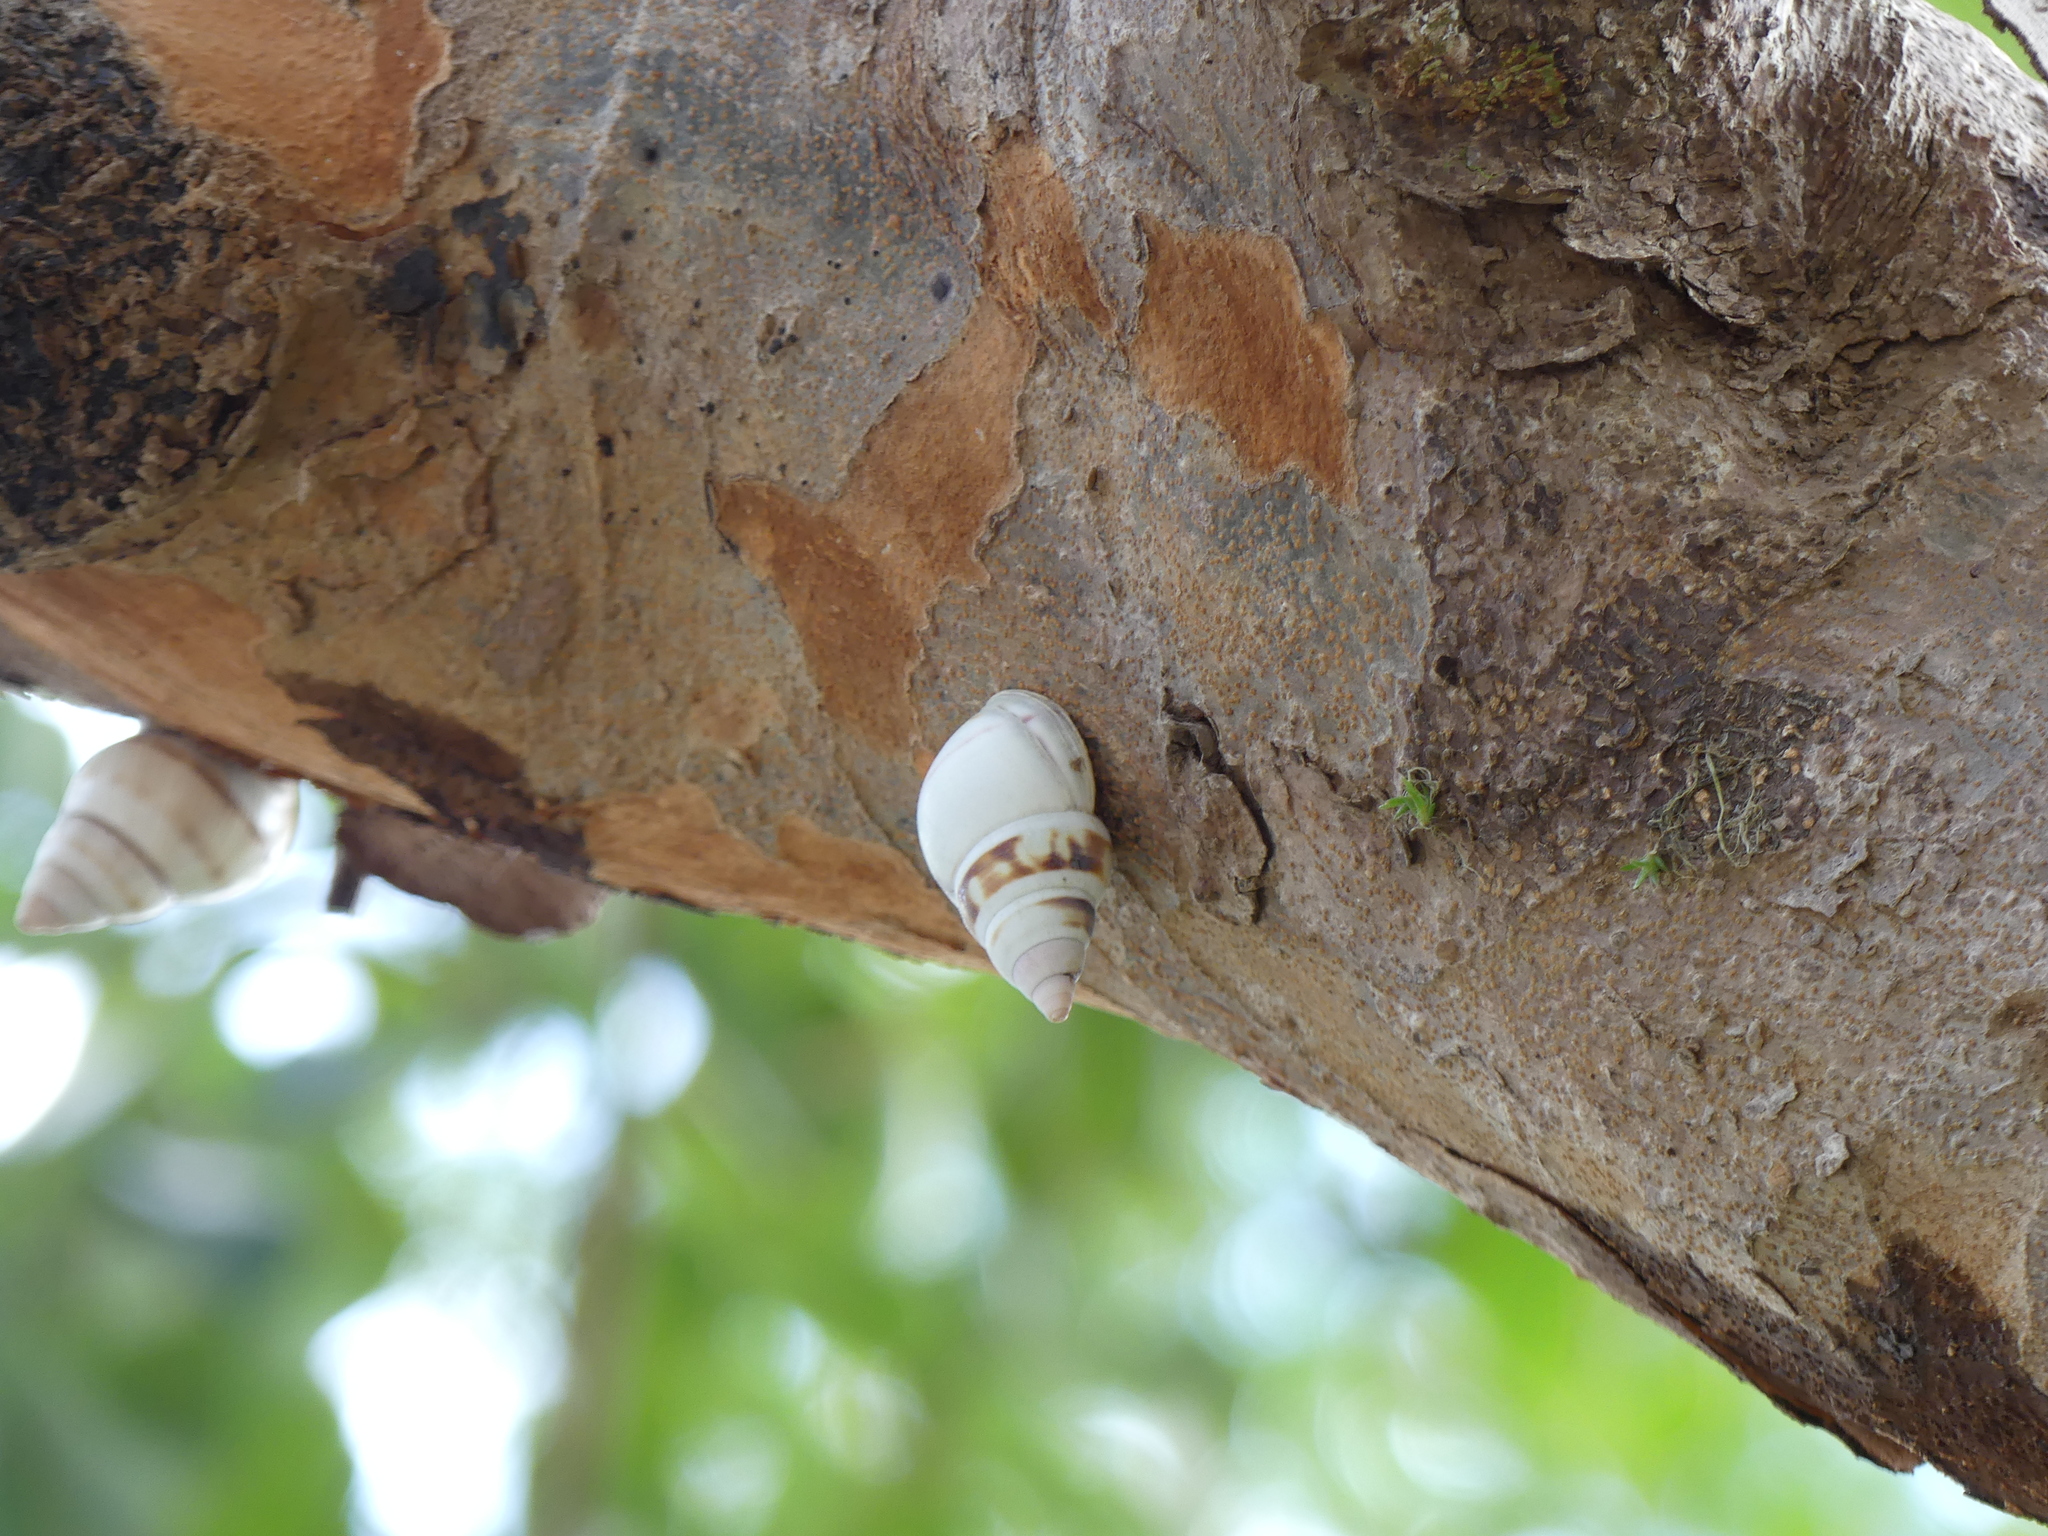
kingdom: Animalia
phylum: Mollusca
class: Gastropoda
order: Stylommatophora
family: Orthalicidae
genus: Liguus
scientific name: Liguus fasciatus
